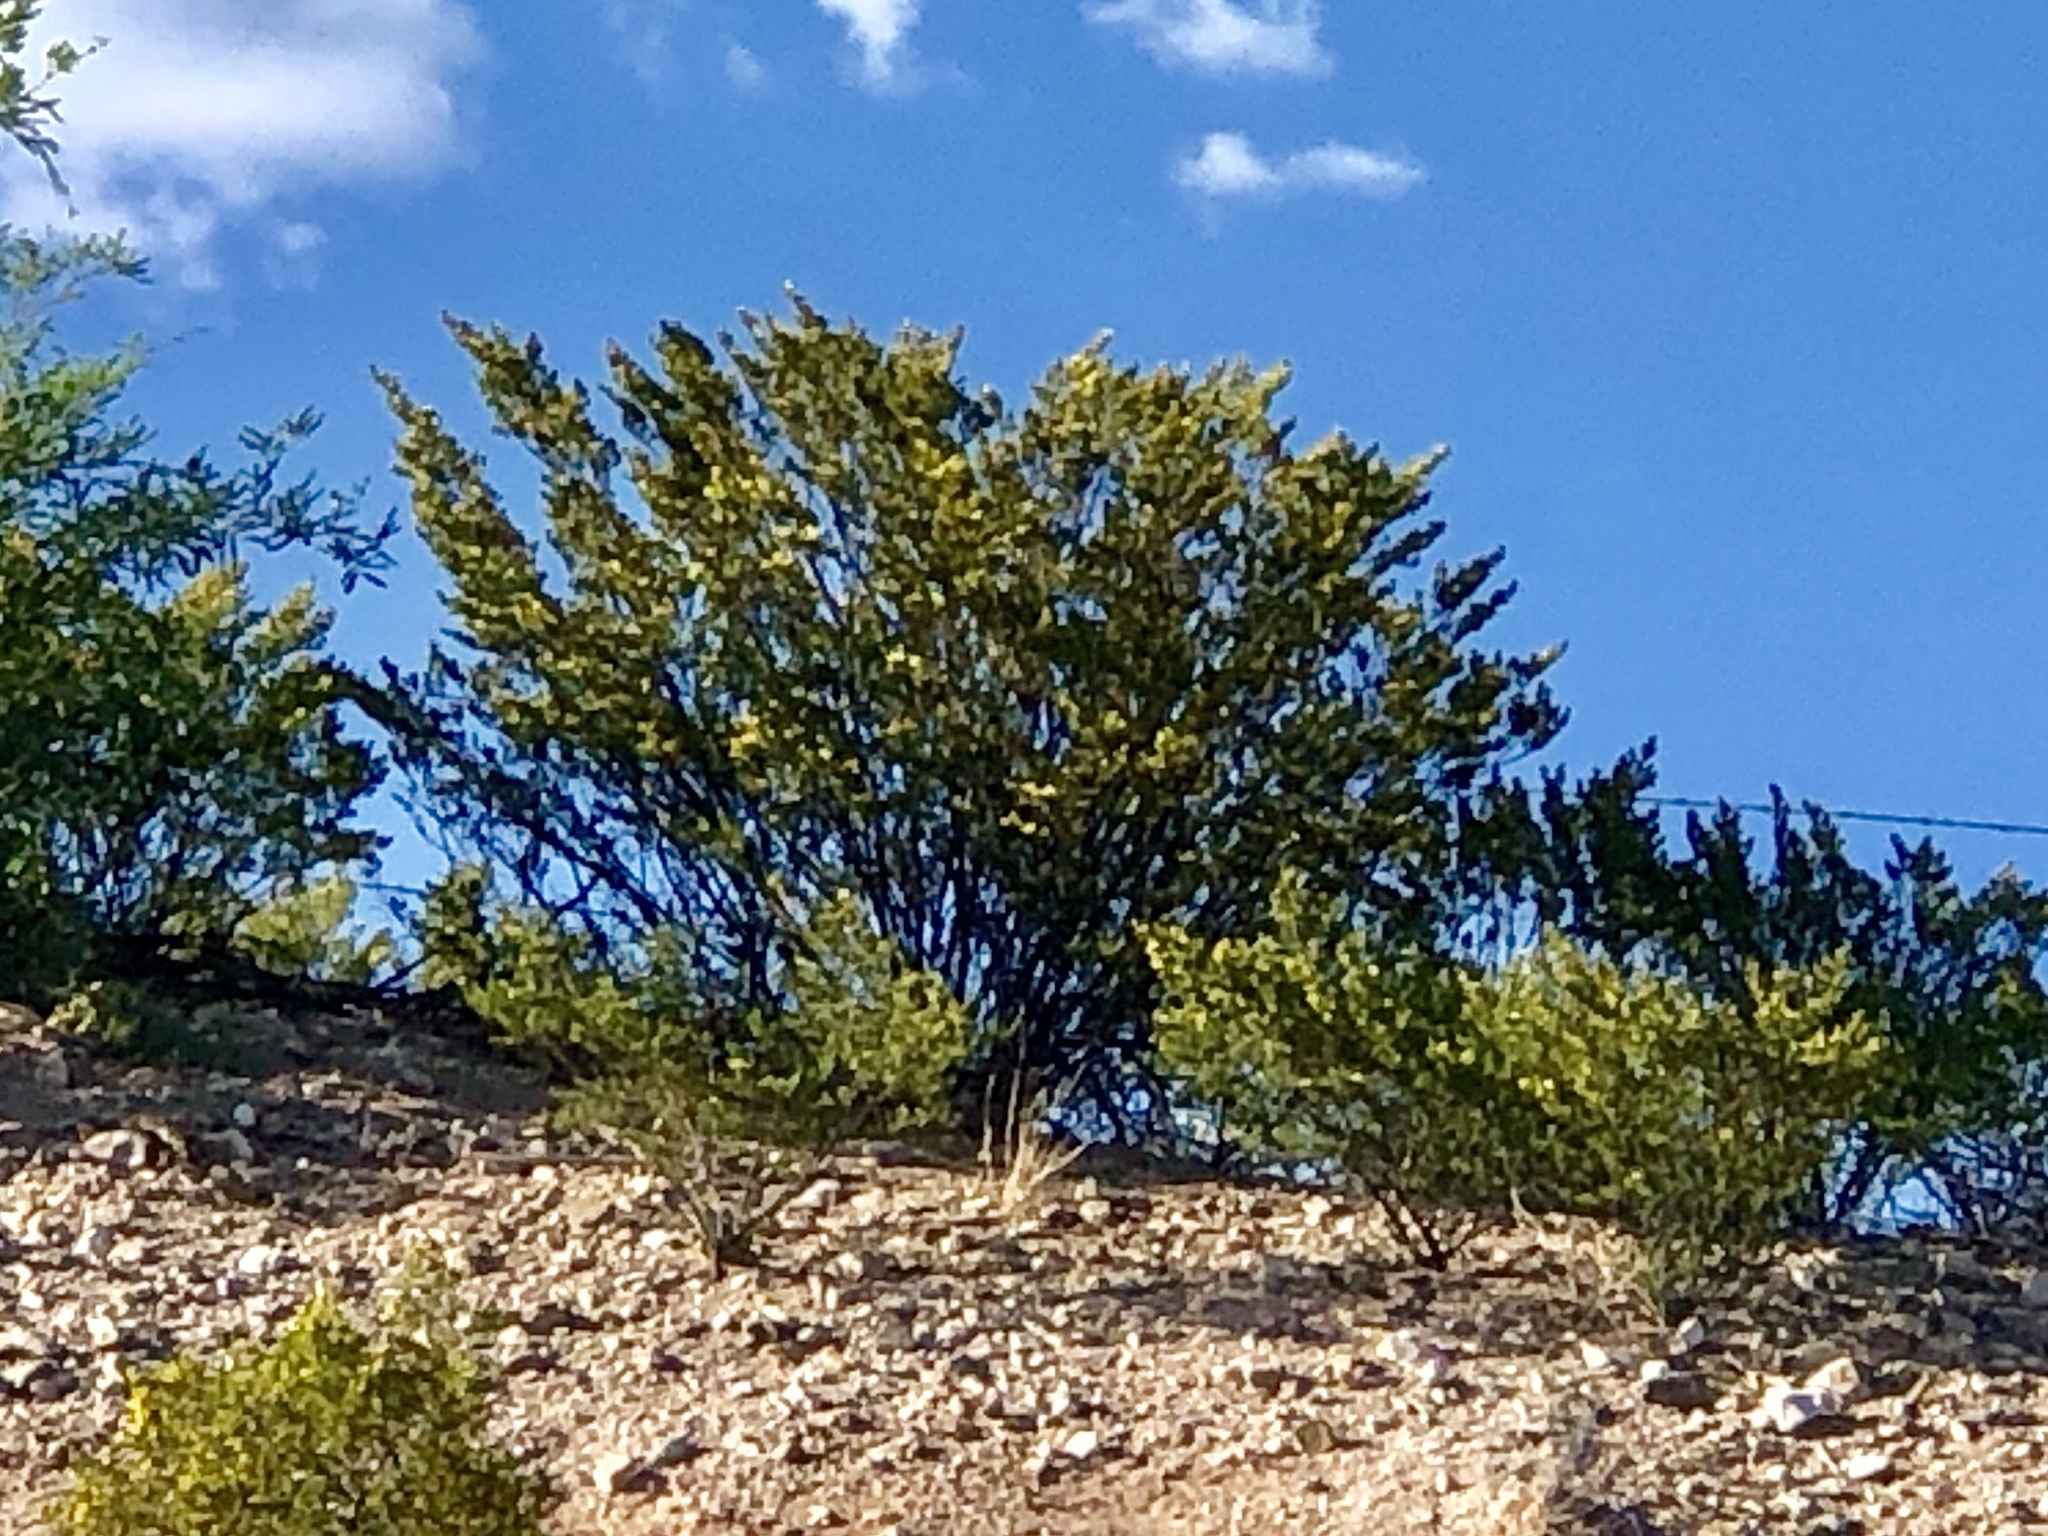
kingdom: Plantae
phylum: Tracheophyta
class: Magnoliopsida
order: Zygophyllales
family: Zygophyllaceae
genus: Larrea
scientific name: Larrea tridentata
